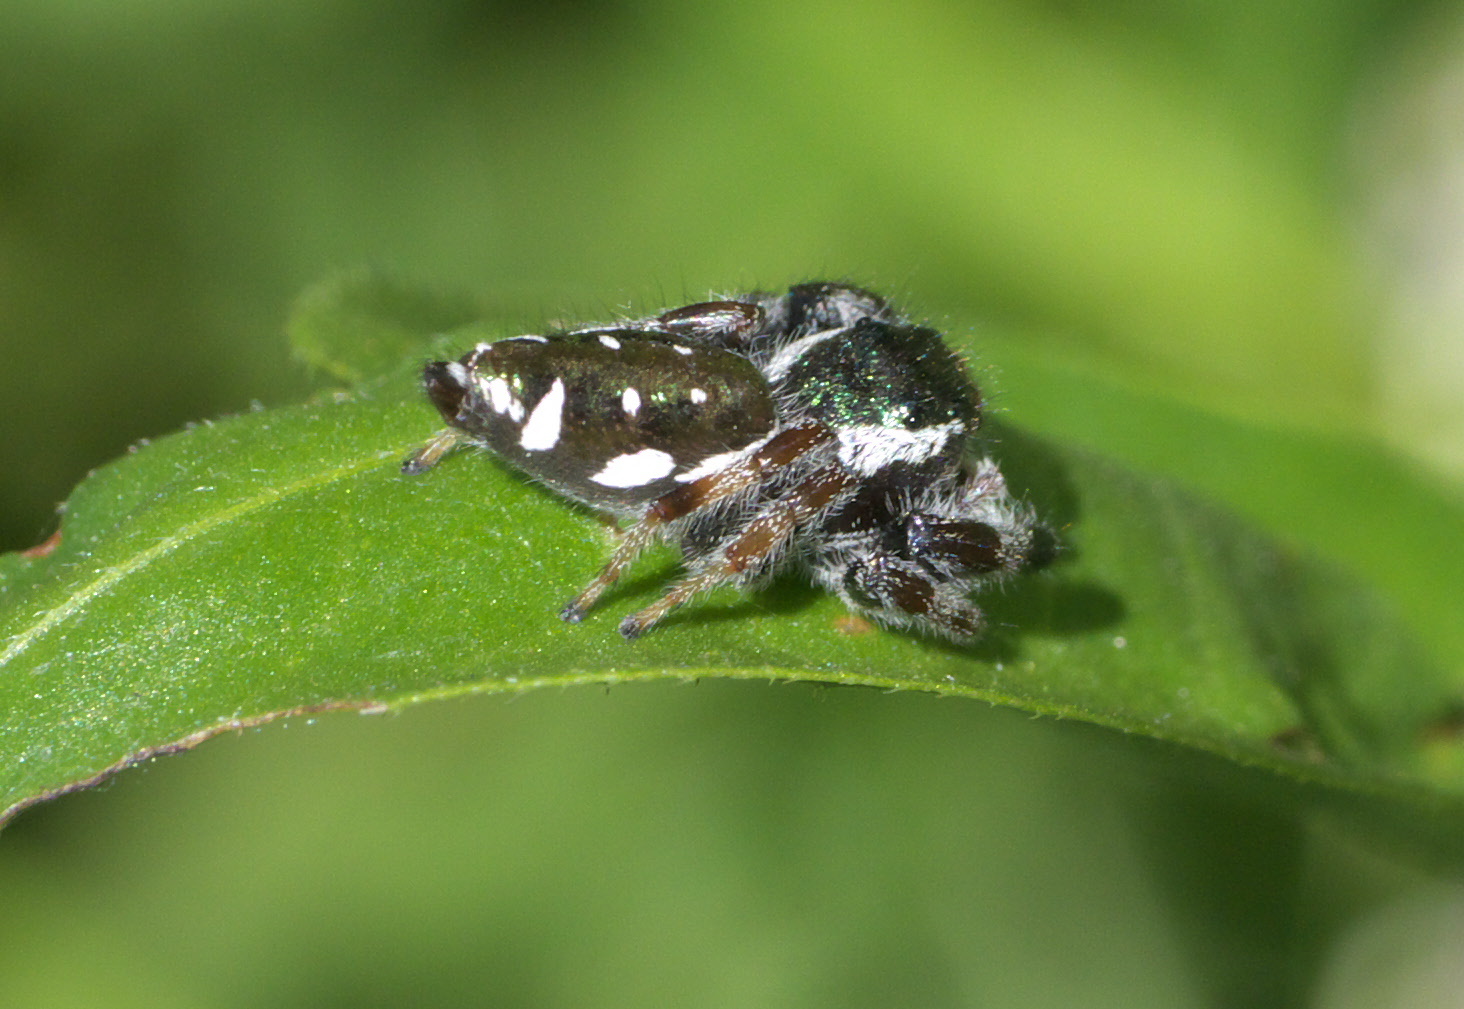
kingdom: Animalia
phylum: Arthropoda
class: Arachnida
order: Araneae
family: Salticidae
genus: Paraphidippus
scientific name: Paraphidippus aurantius
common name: Jumping spiders
